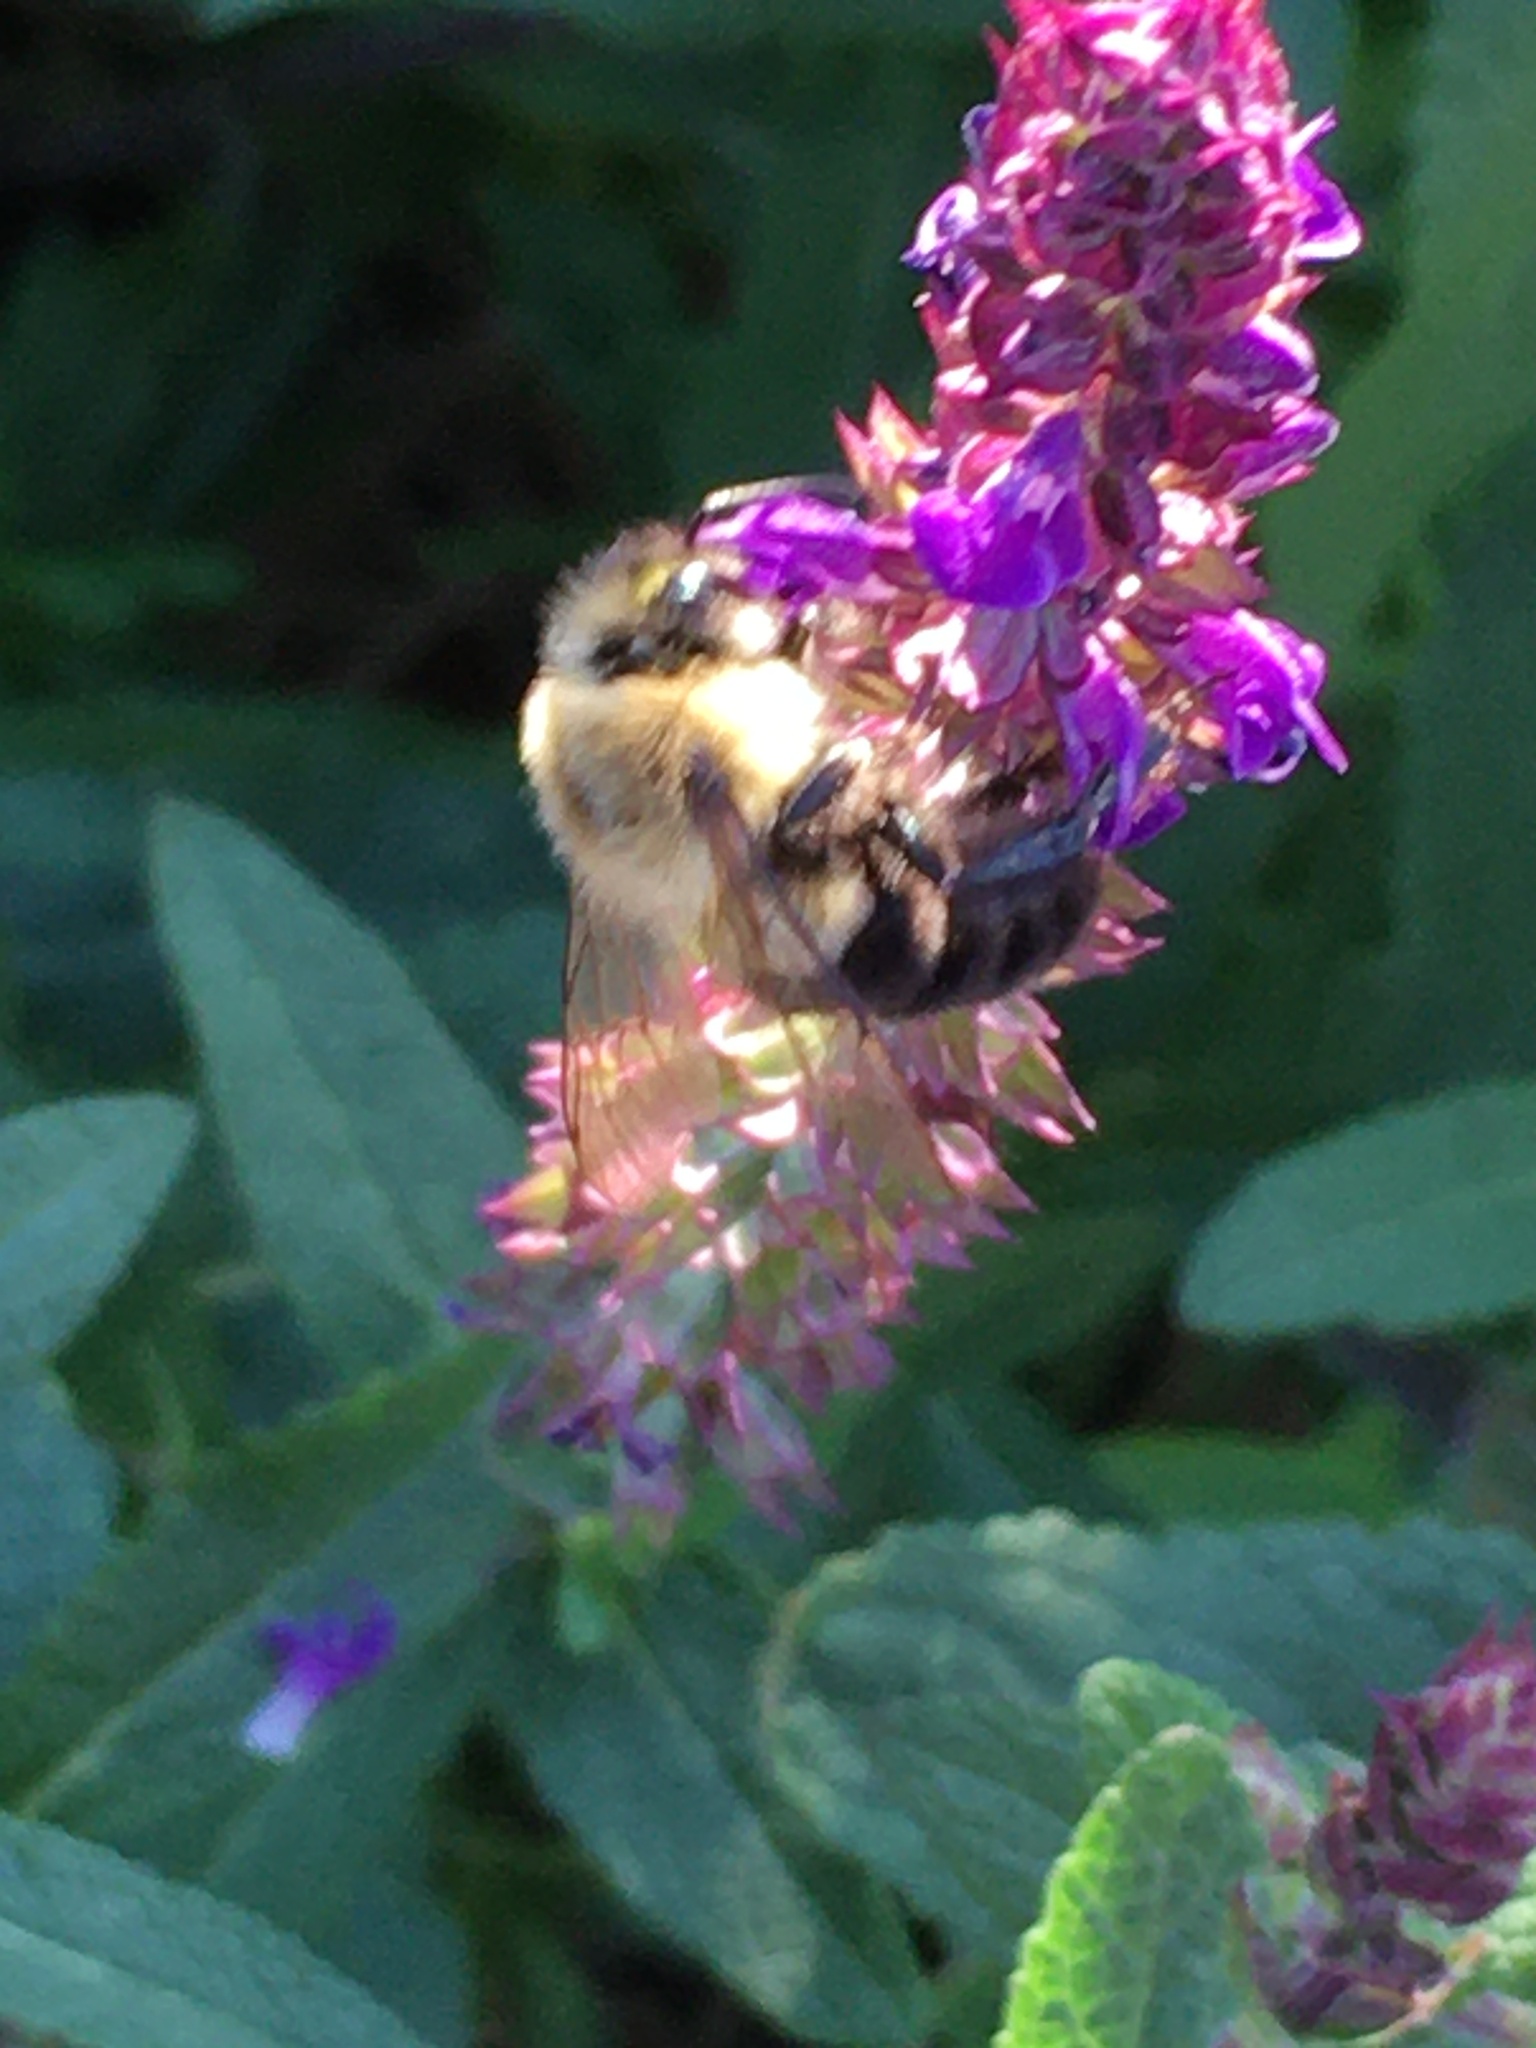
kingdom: Animalia
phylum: Arthropoda
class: Insecta
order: Hymenoptera
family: Apidae
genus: Bombus
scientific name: Bombus impatiens
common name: Common eastern bumble bee
